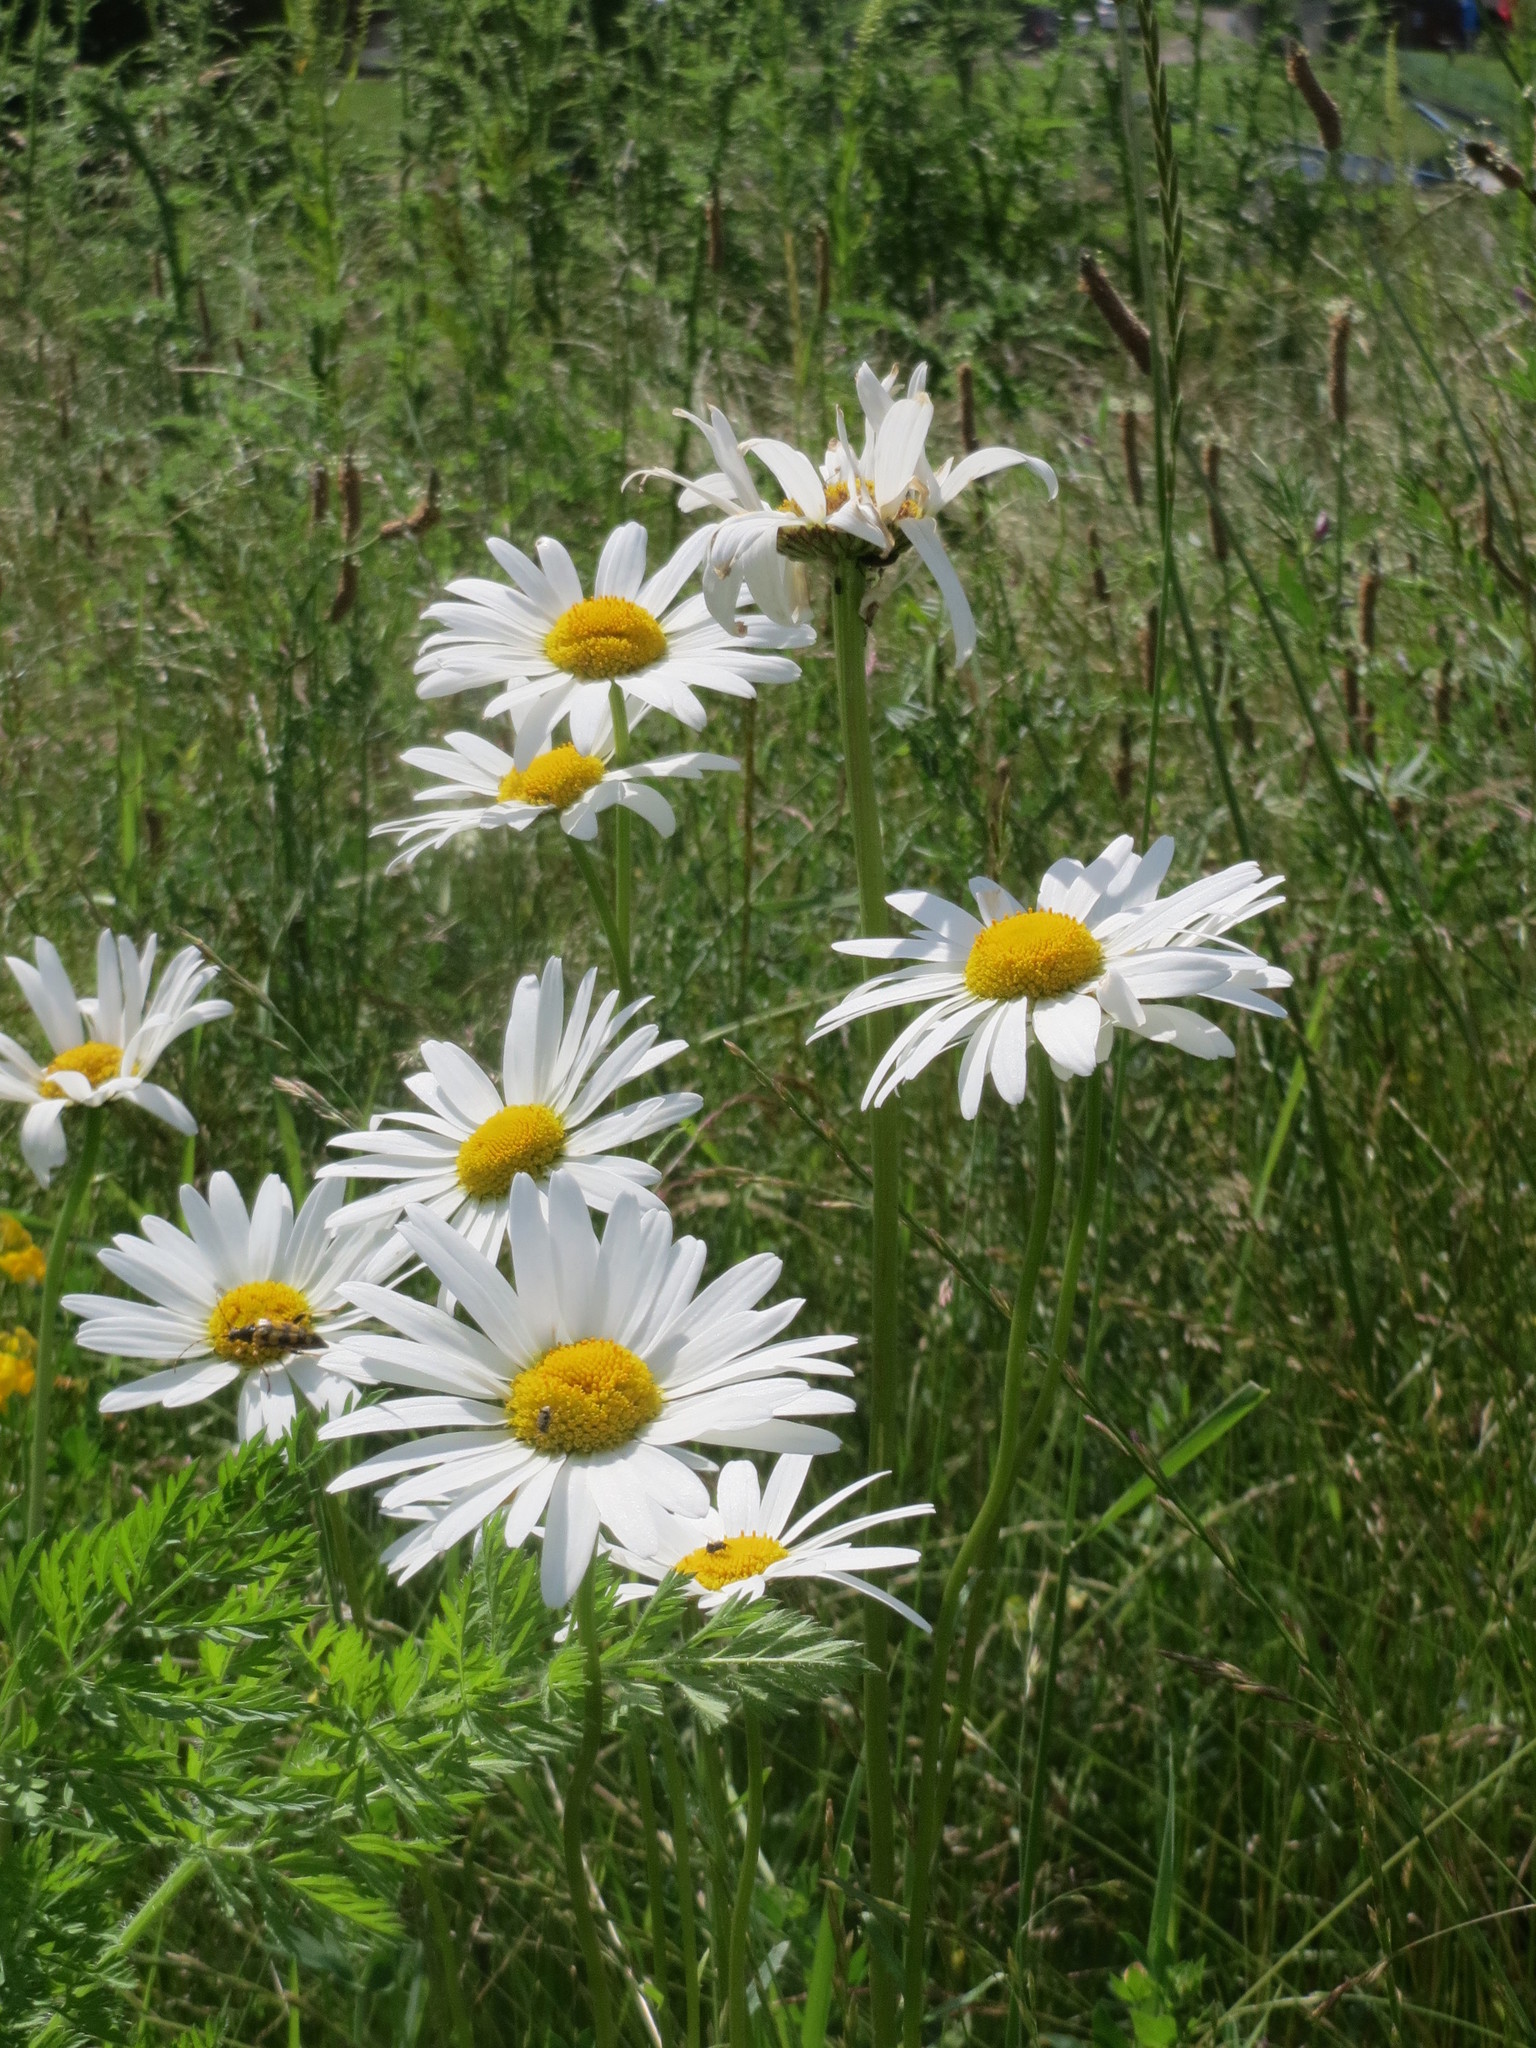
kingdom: Plantae
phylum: Tracheophyta
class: Magnoliopsida
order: Asterales
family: Asteraceae
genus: Leucanthemum
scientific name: Leucanthemum vulgare
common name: Oxeye daisy
